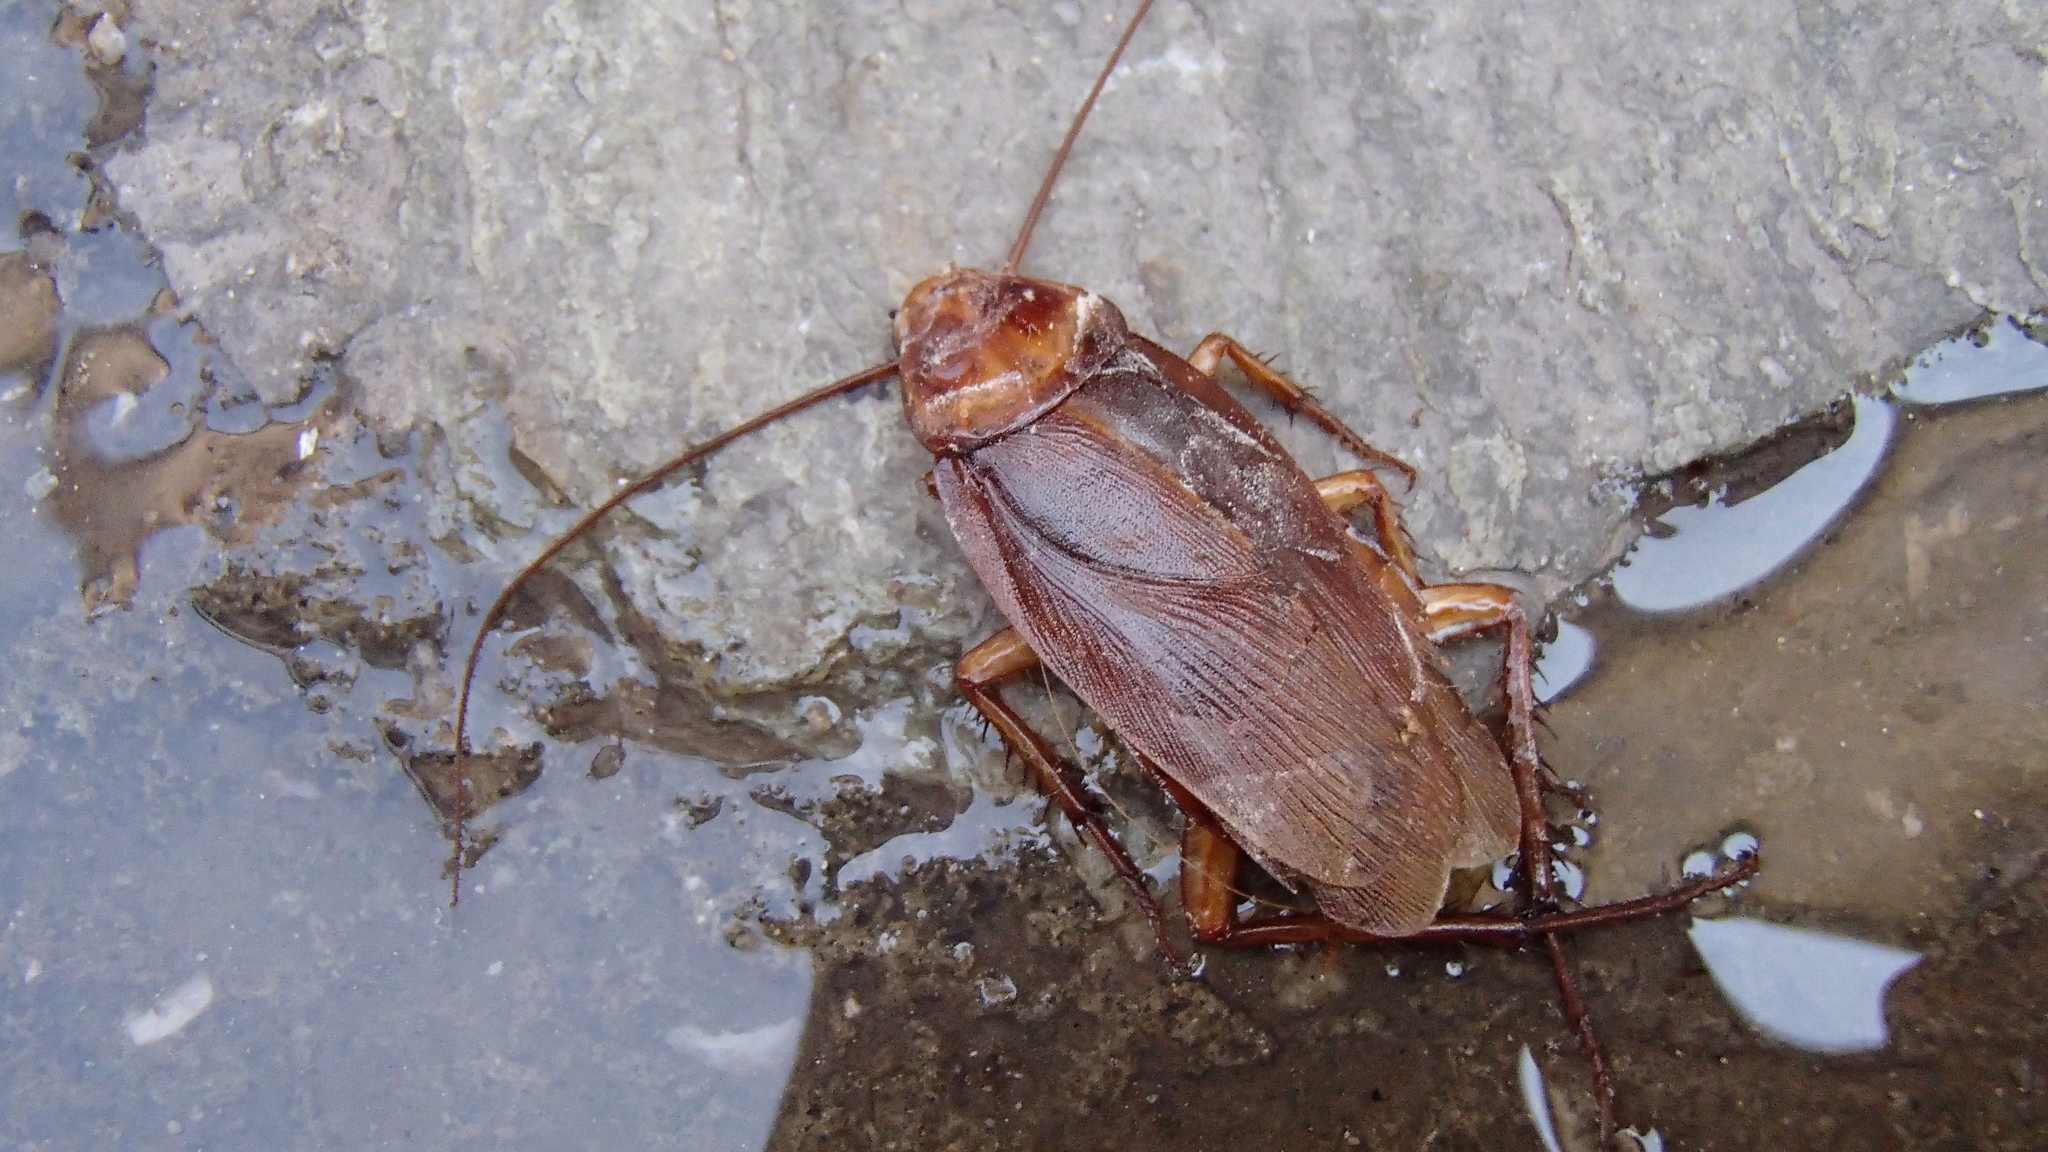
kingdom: Animalia
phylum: Arthropoda
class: Insecta
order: Blattodea
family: Blattidae
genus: Periplaneta
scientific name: Periplaneta americana
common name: American cockroach
